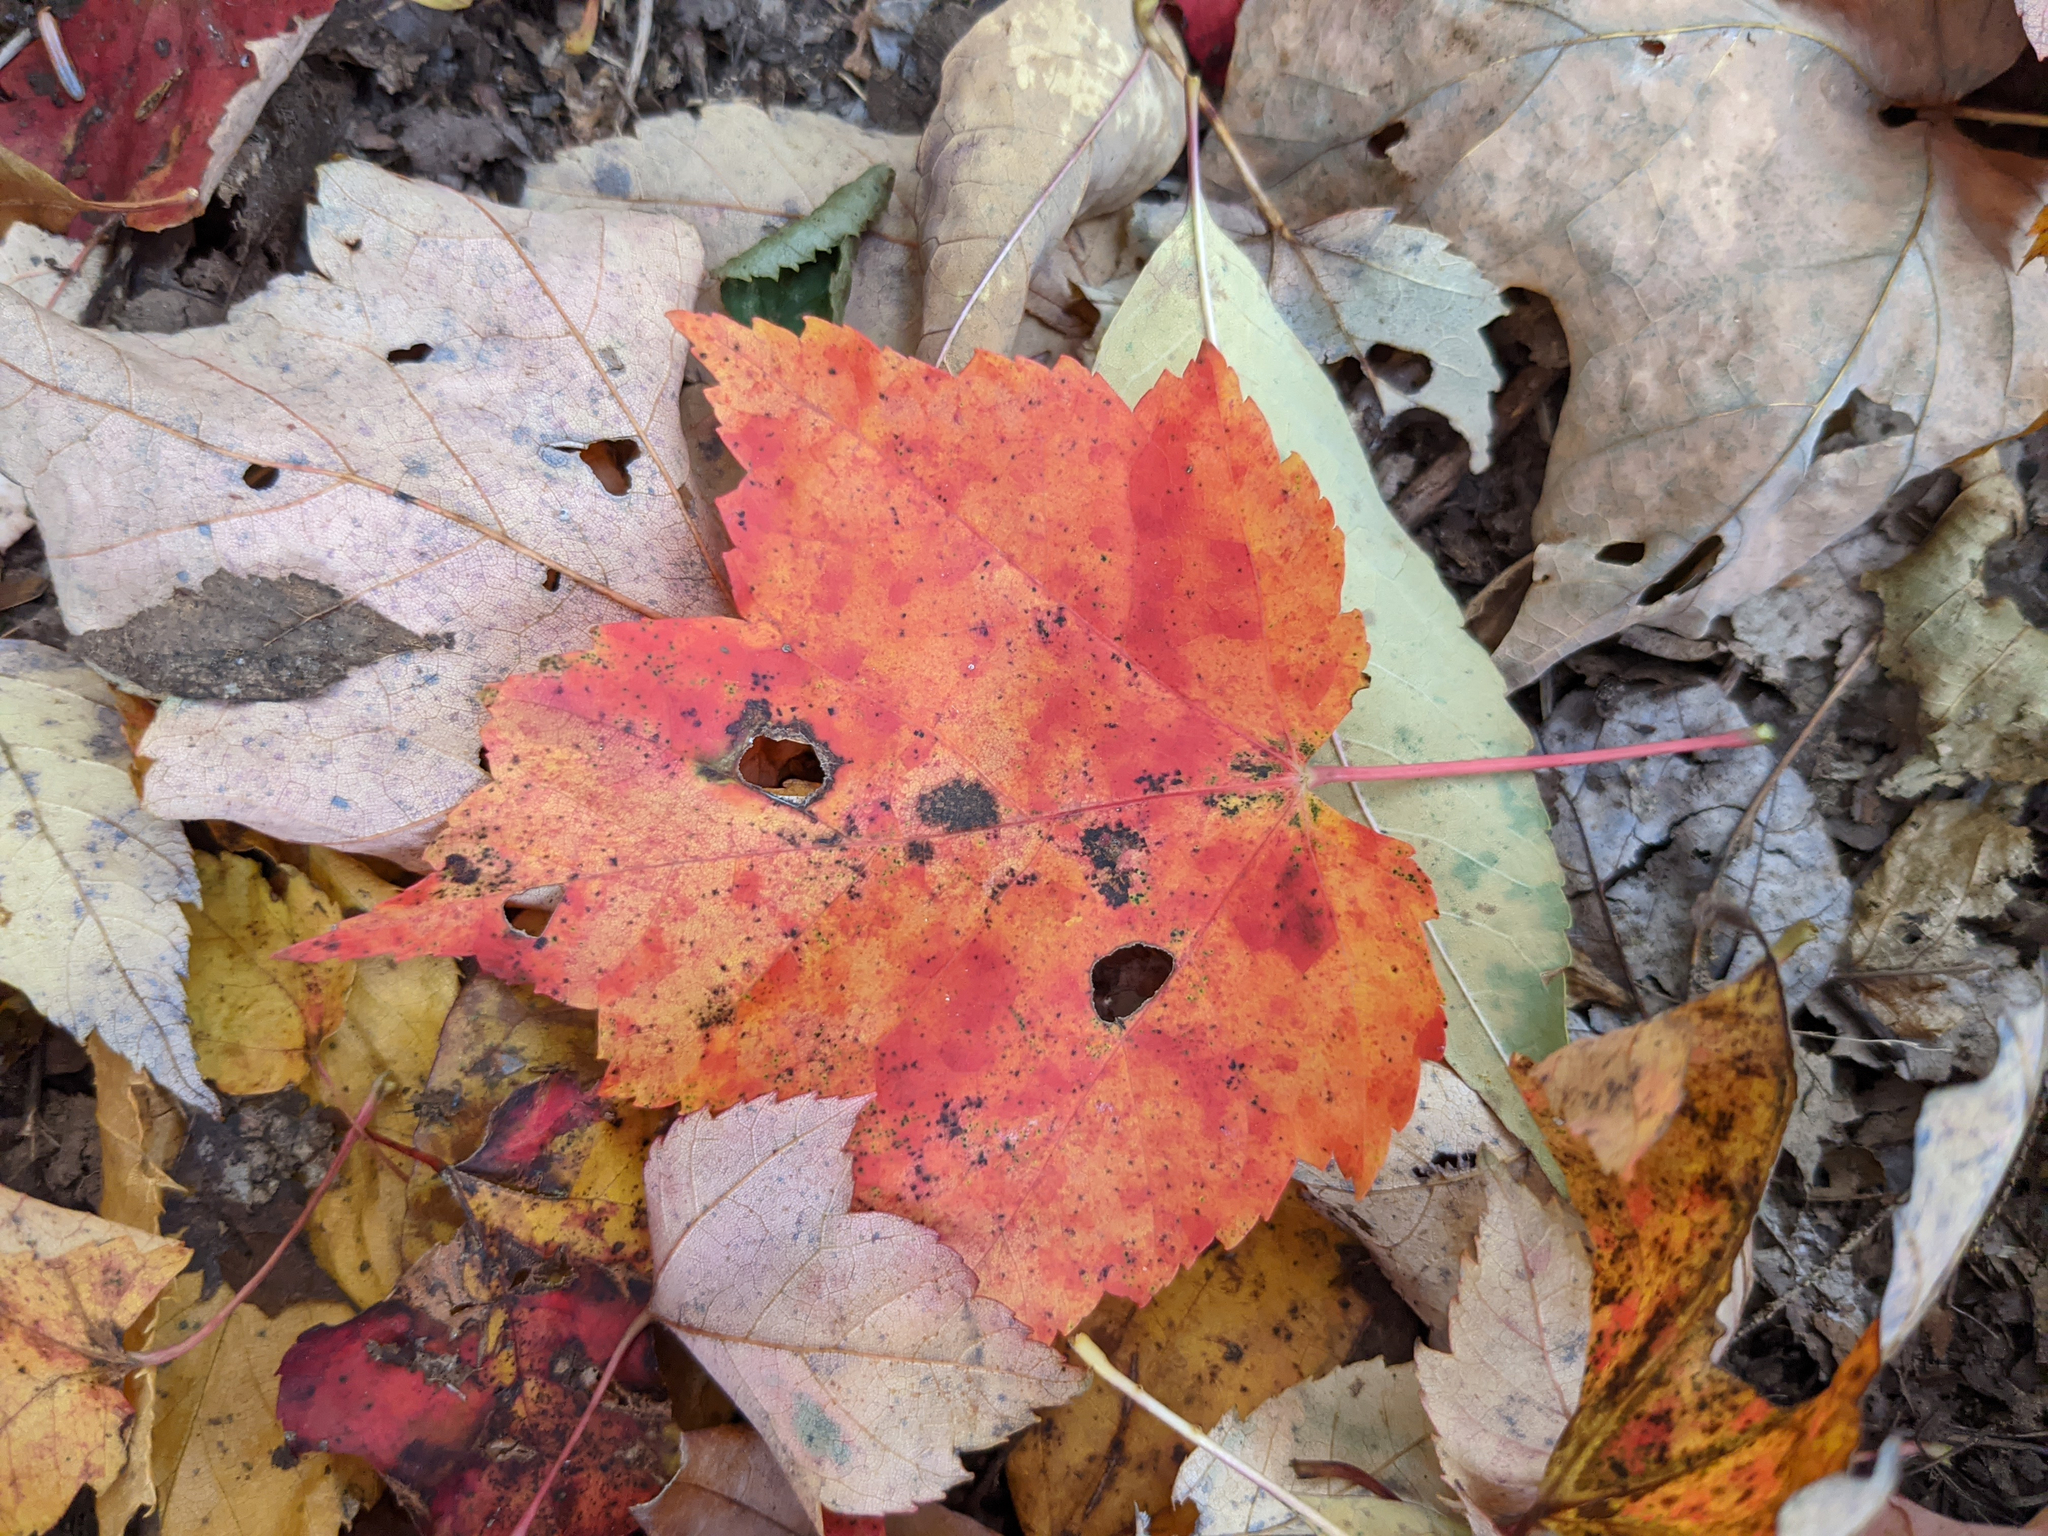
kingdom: Plantae
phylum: Tracheophyta
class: Magnoliopsida
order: Sapindales
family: Sapindaceae
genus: Acer
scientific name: Acer rubrum
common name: Red maple
